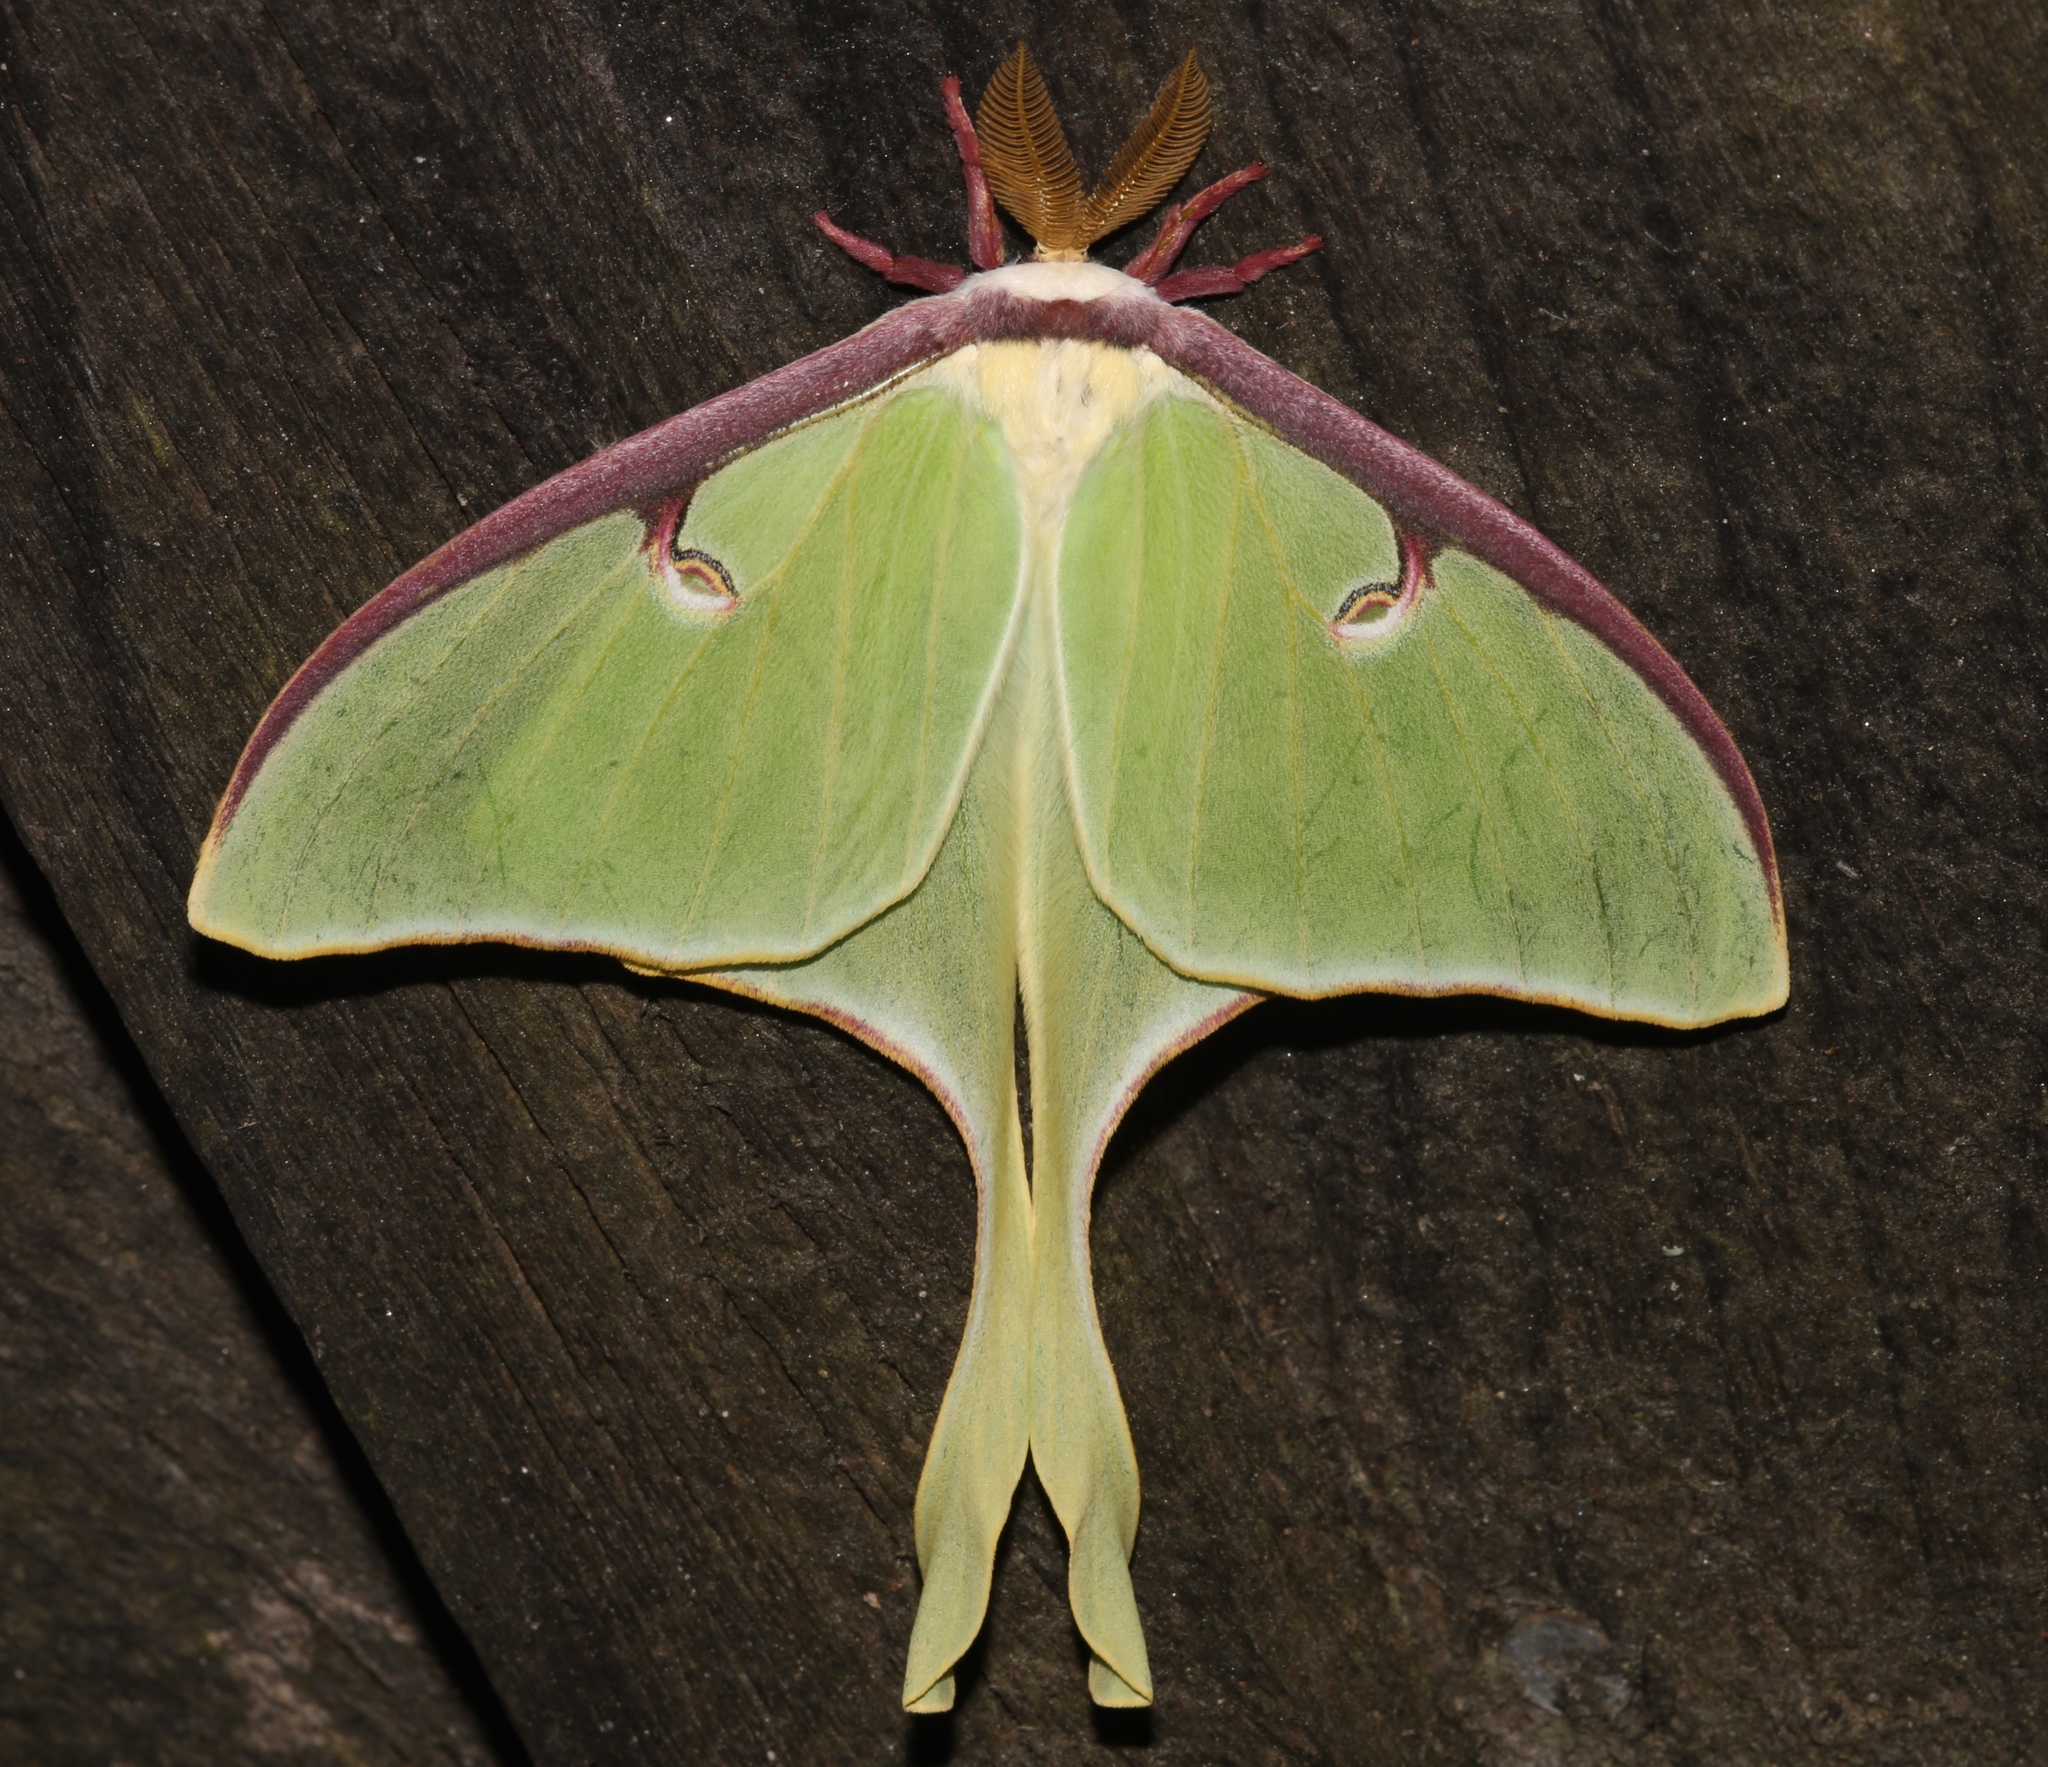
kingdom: Animalia
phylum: Arthropoda
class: Insecta
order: Lepidoptera
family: Saturniidae
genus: Actias
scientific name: Actias luna
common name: Luna moth
